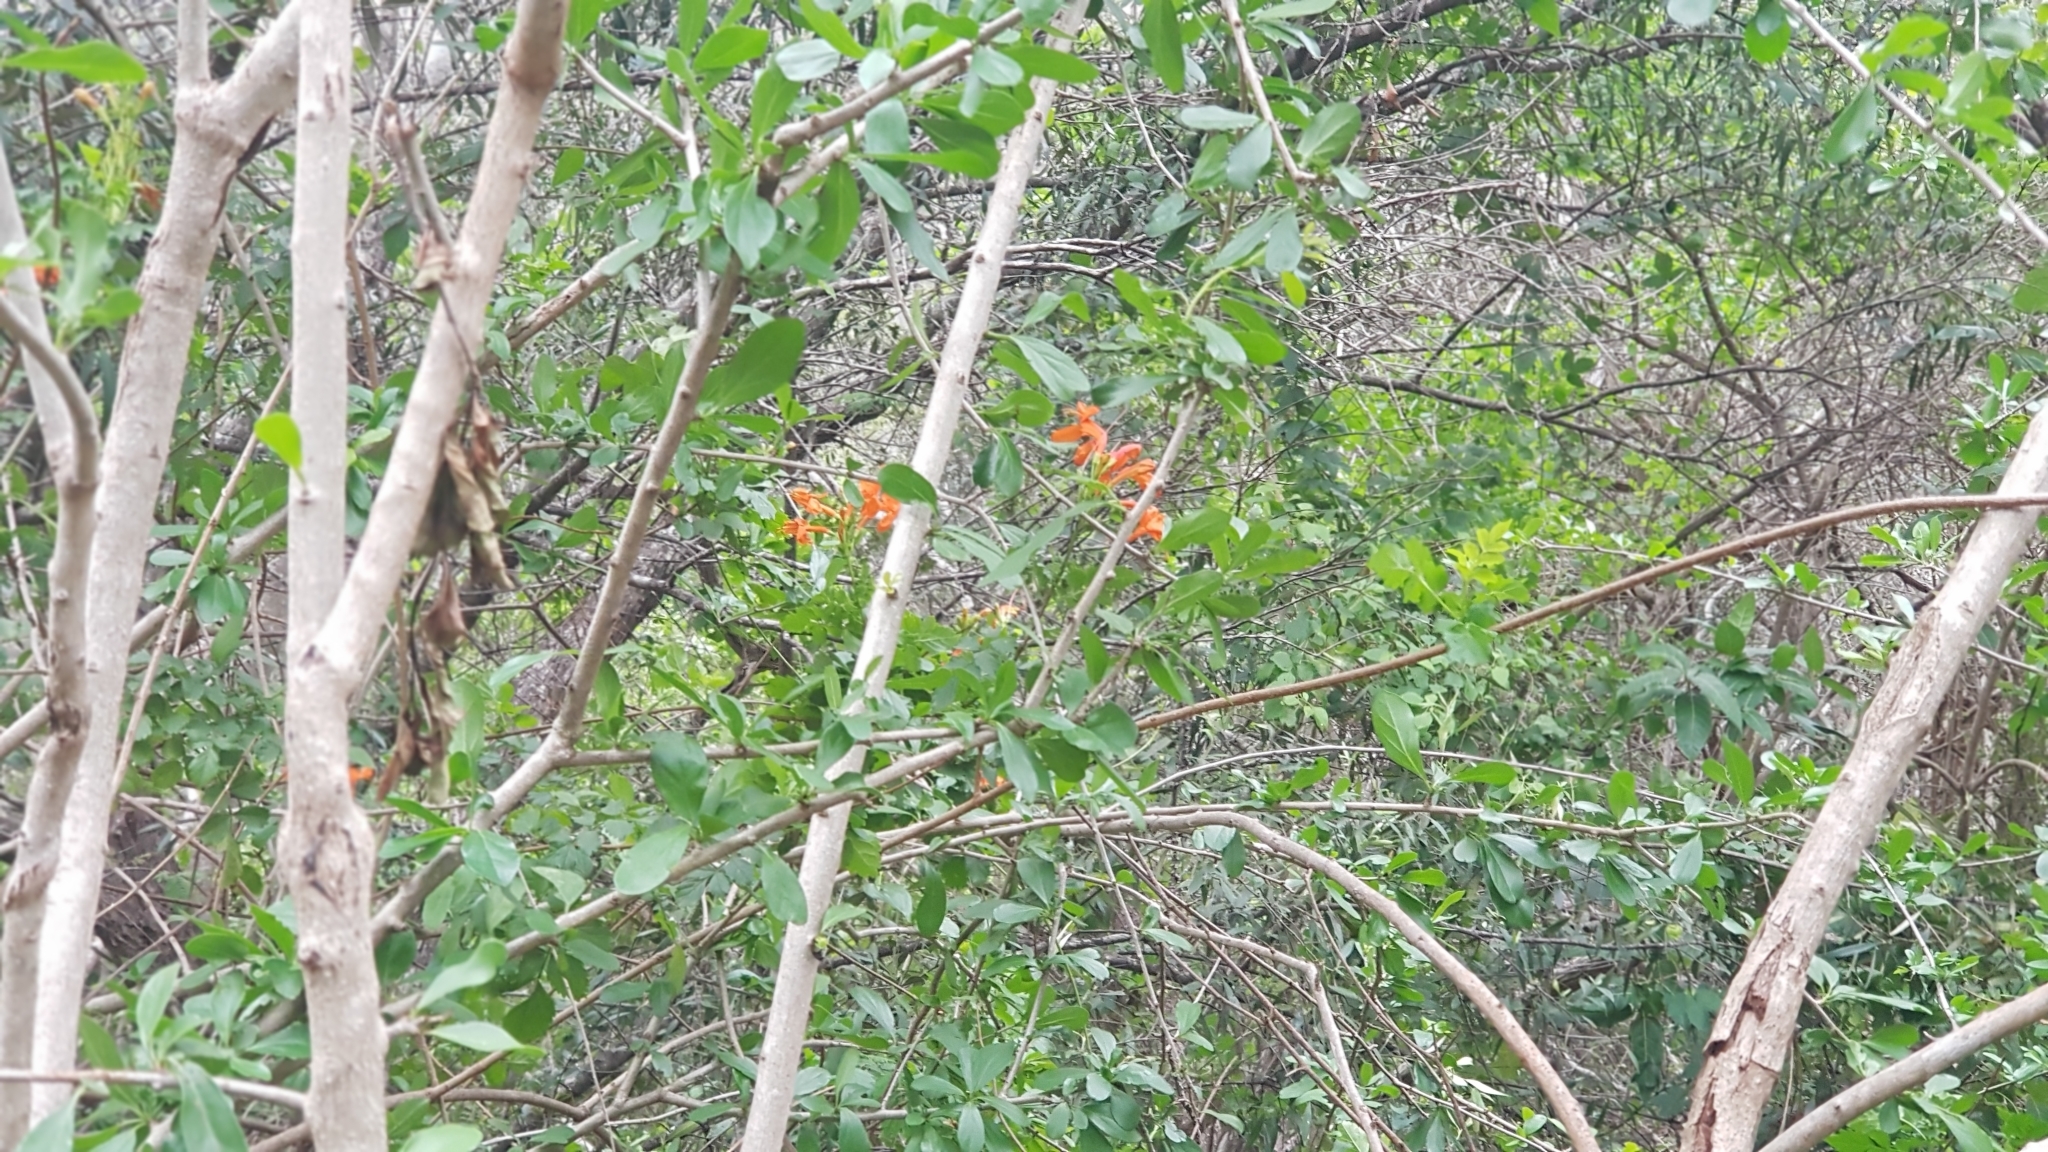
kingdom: Plantae
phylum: Tracheophyta
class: Magnoliopsida
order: Lamiales
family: Bignoniaceae
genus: Tecomaria
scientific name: Tecomaria capensis
